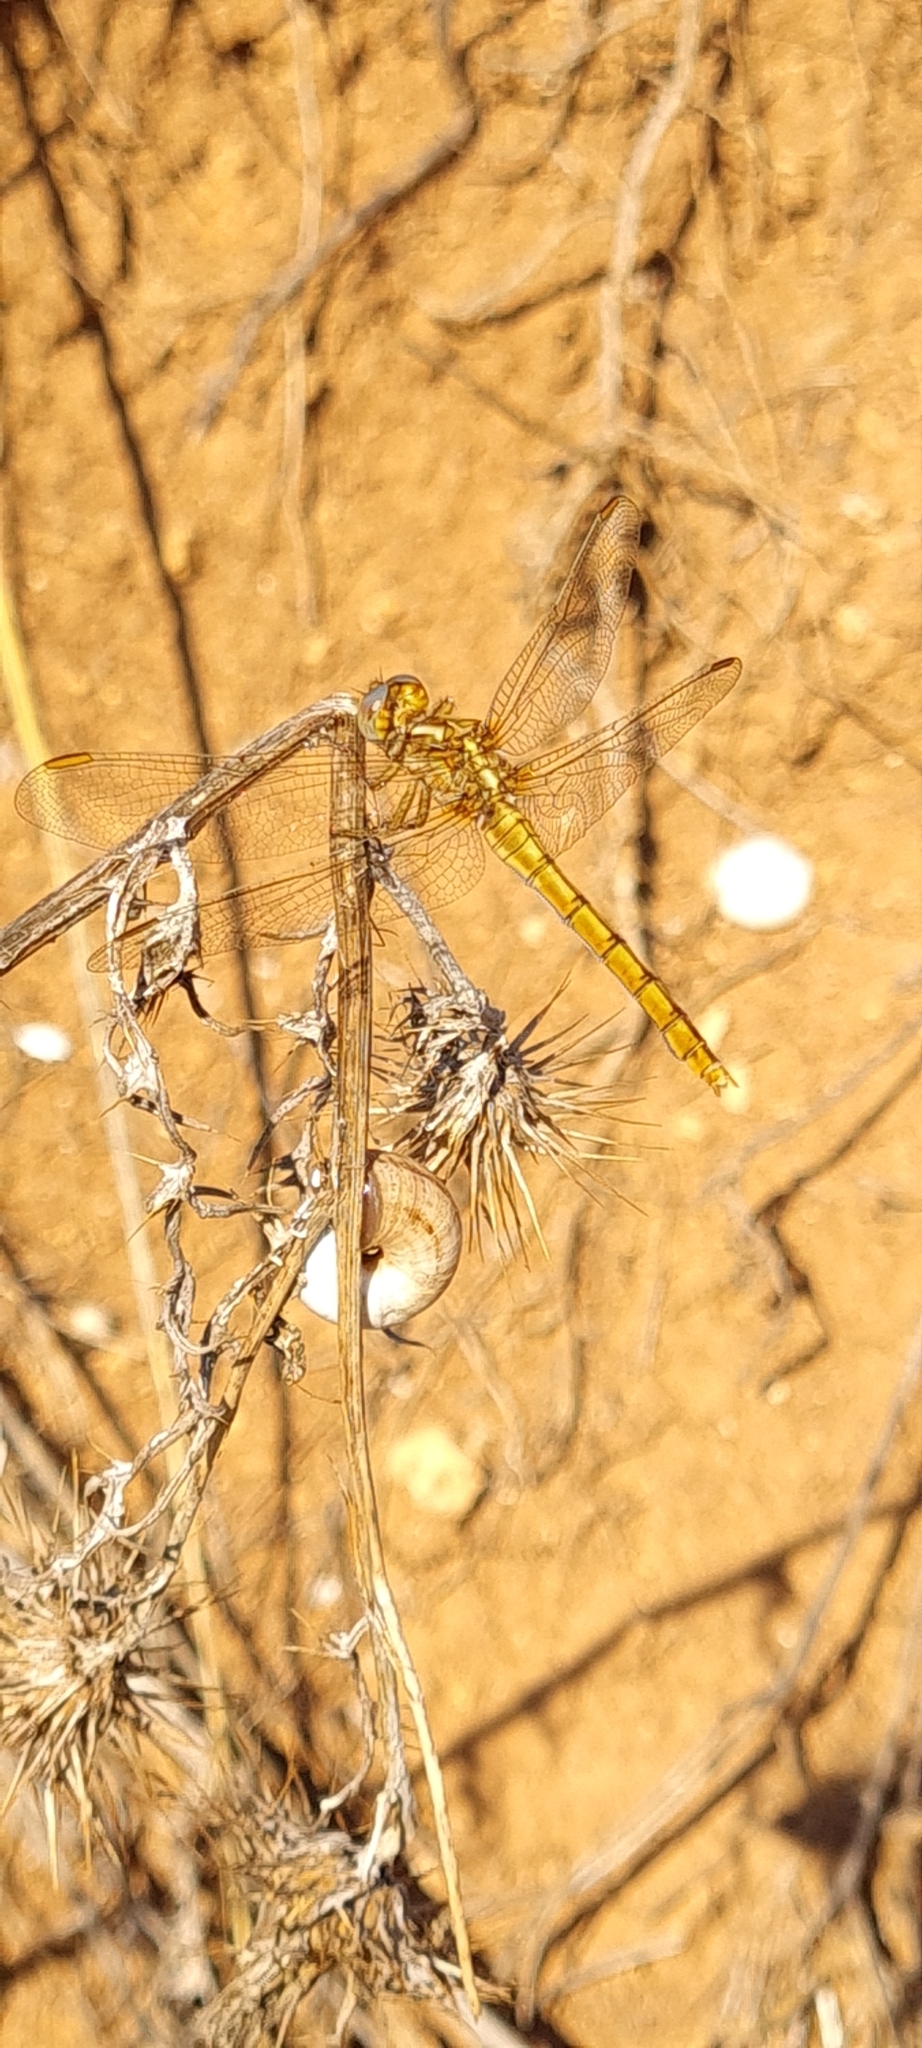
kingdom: Animalia
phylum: Arthropoda
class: Insecta
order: Odonata
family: Libellulidae
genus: Orthetrum
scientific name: Orthetrum coerulescens
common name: Keeled skimmer
